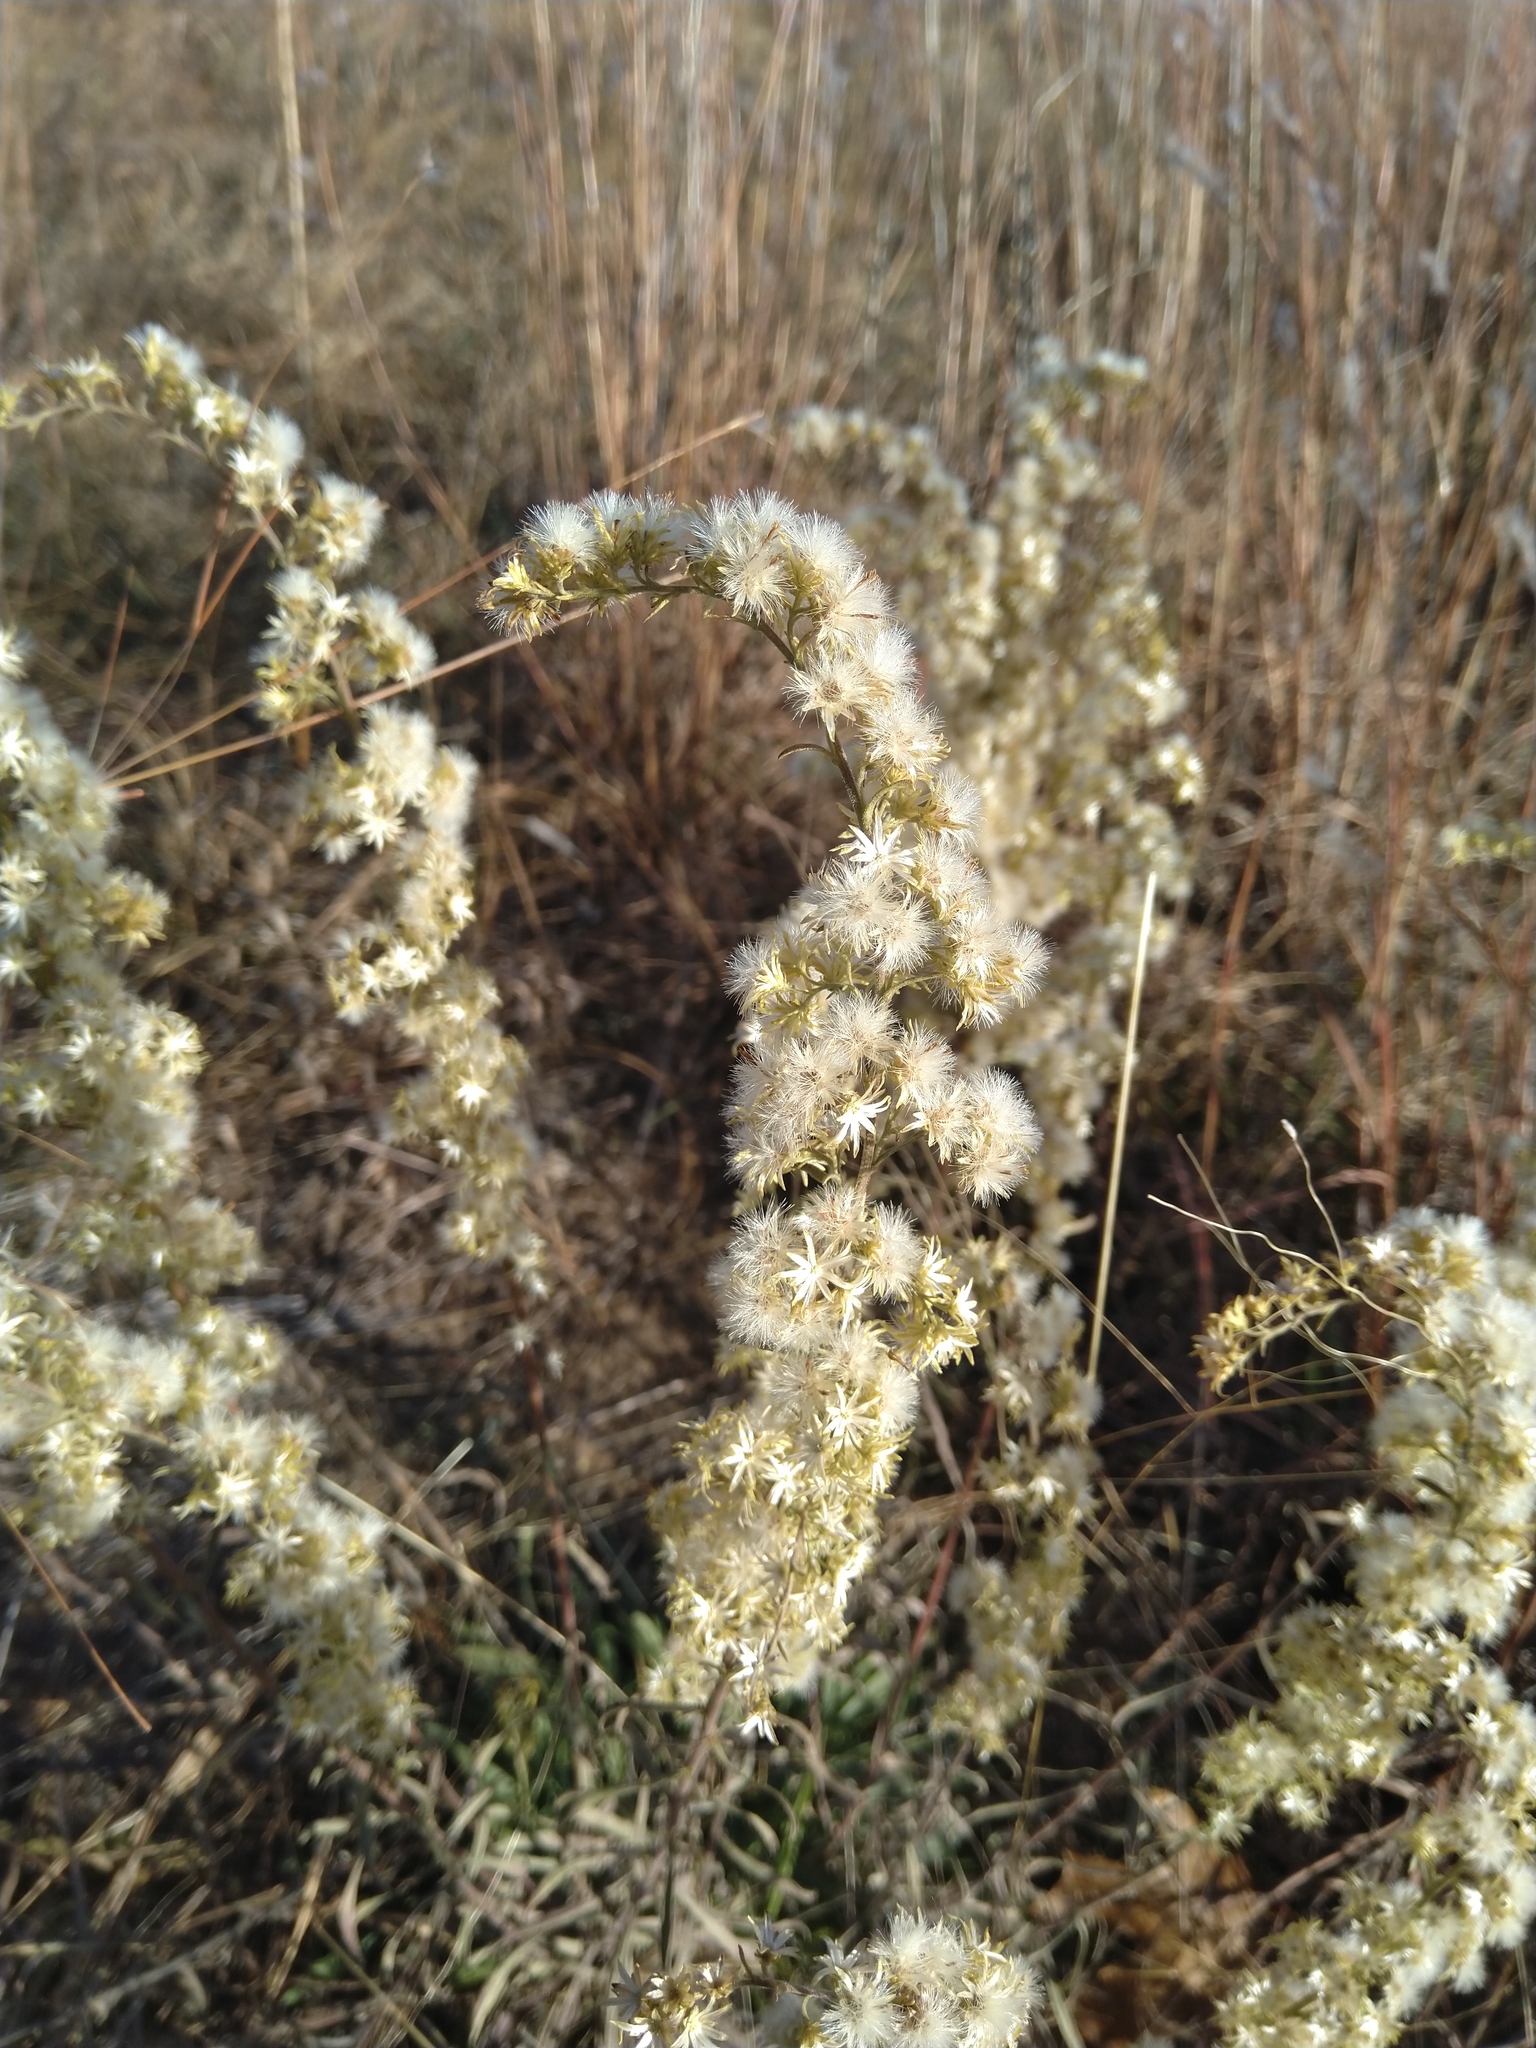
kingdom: Plantae
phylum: Tracheophyta
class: Magnoliopsida
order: Asterales
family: Asteraceae
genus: Solidago
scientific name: Solidago nemoralis
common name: Grey goldenrod
